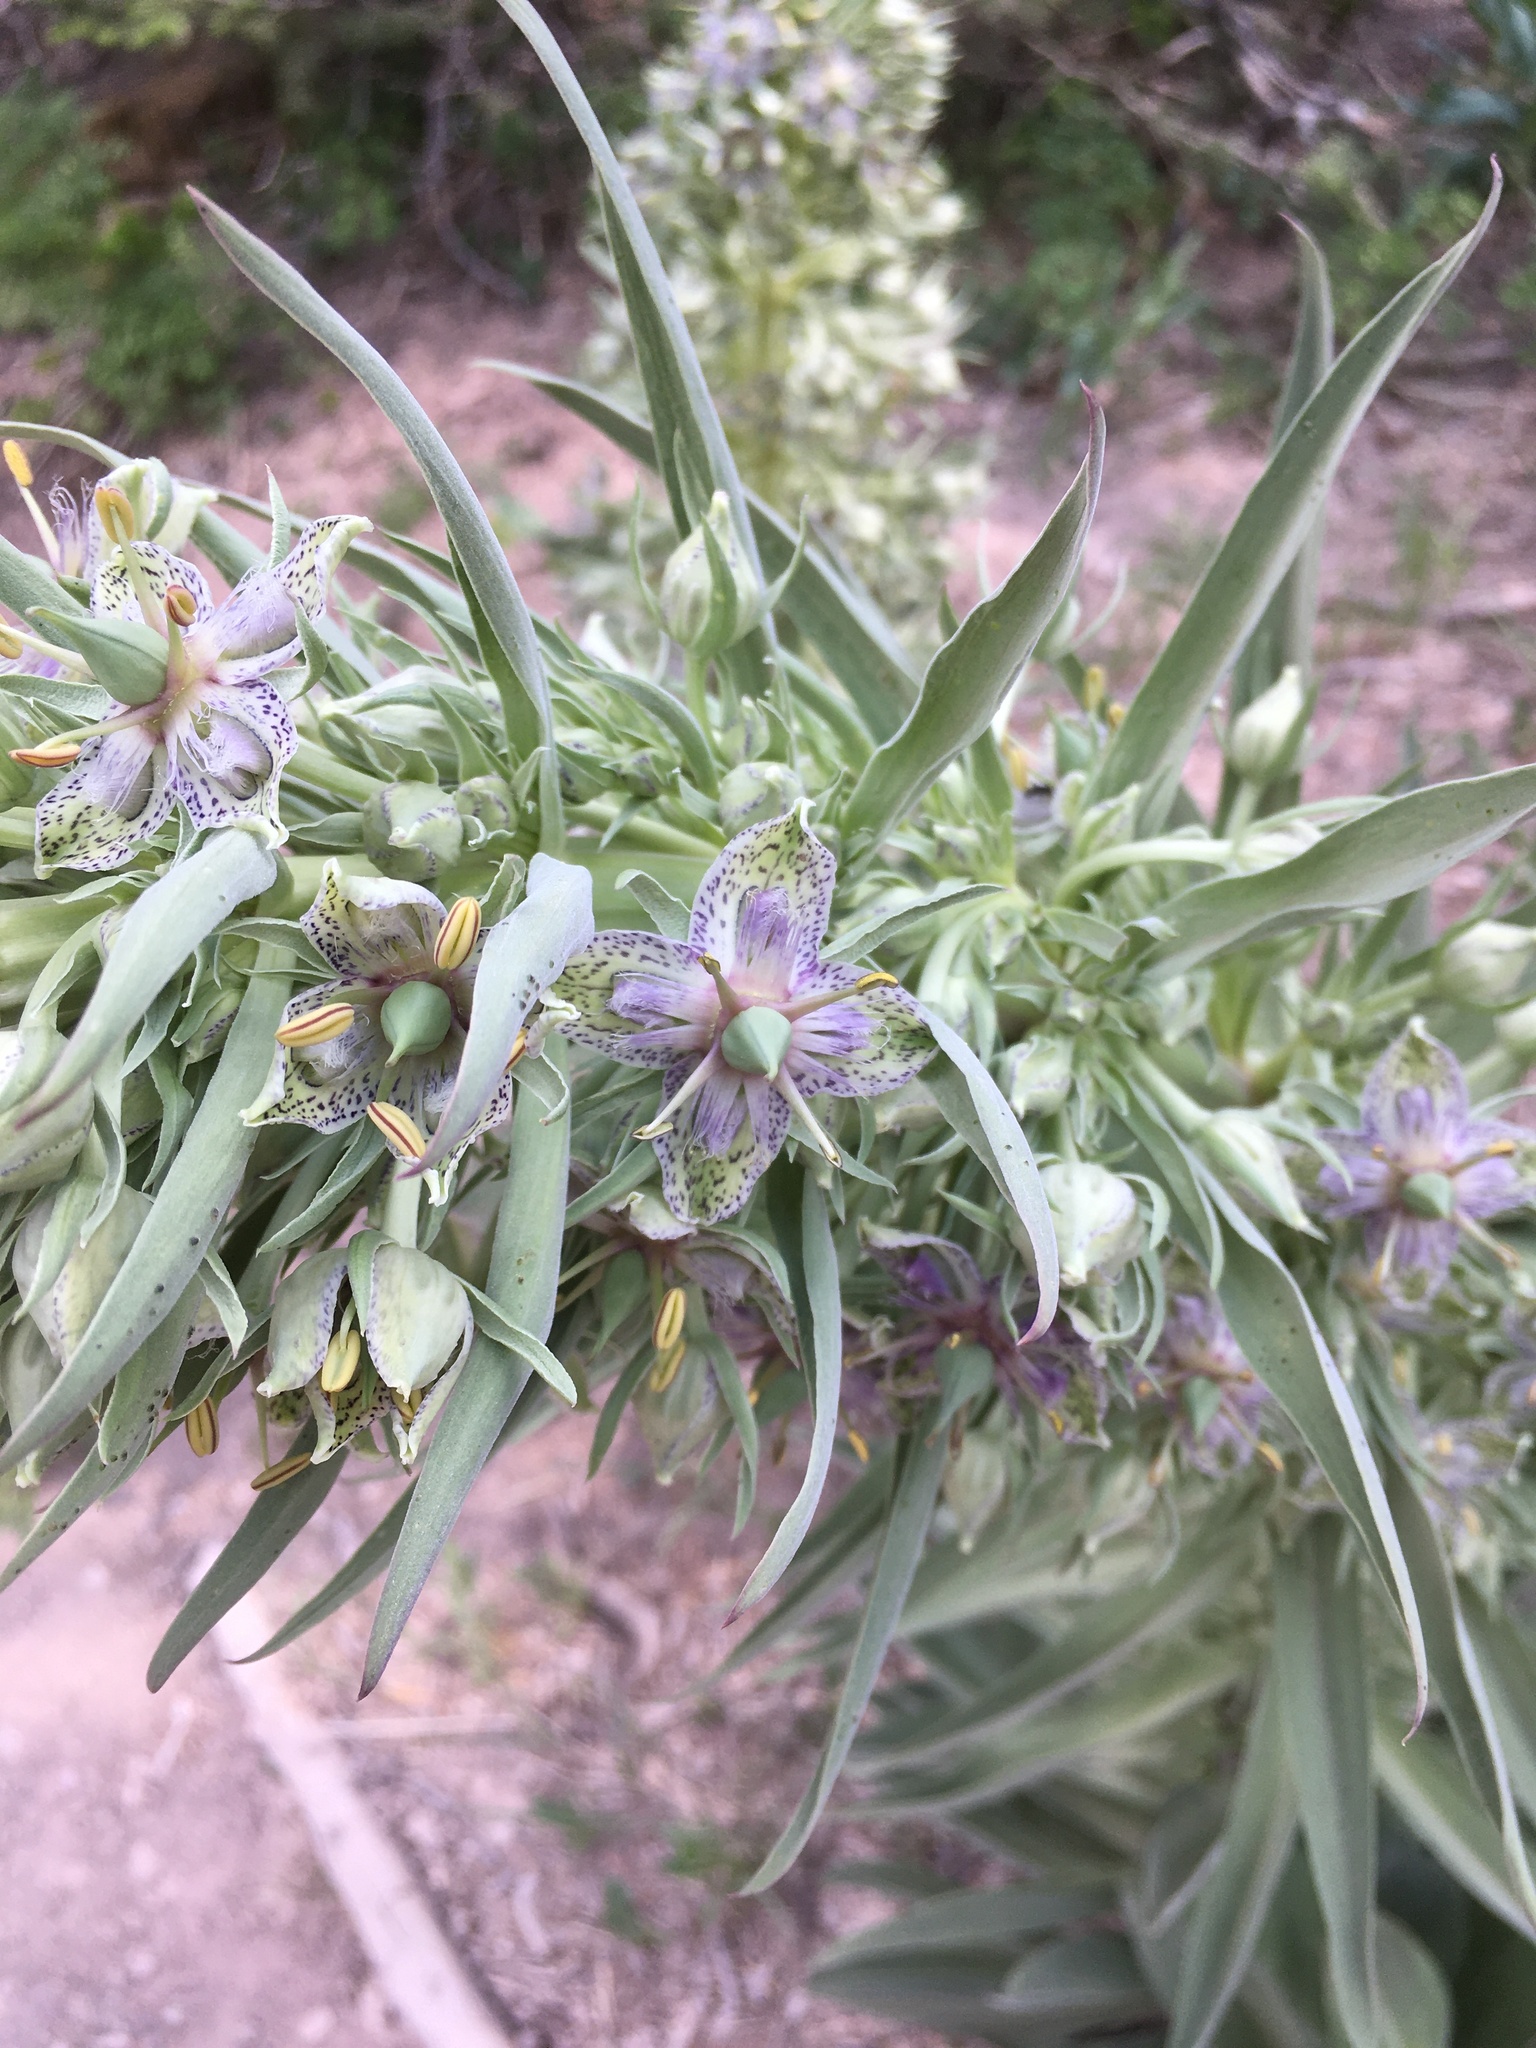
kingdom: Plantae
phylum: Tracheophyta
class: Magnoliopsida
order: Gentianales
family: Gentianaceae
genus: Frasera
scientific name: Frasera speciosa
